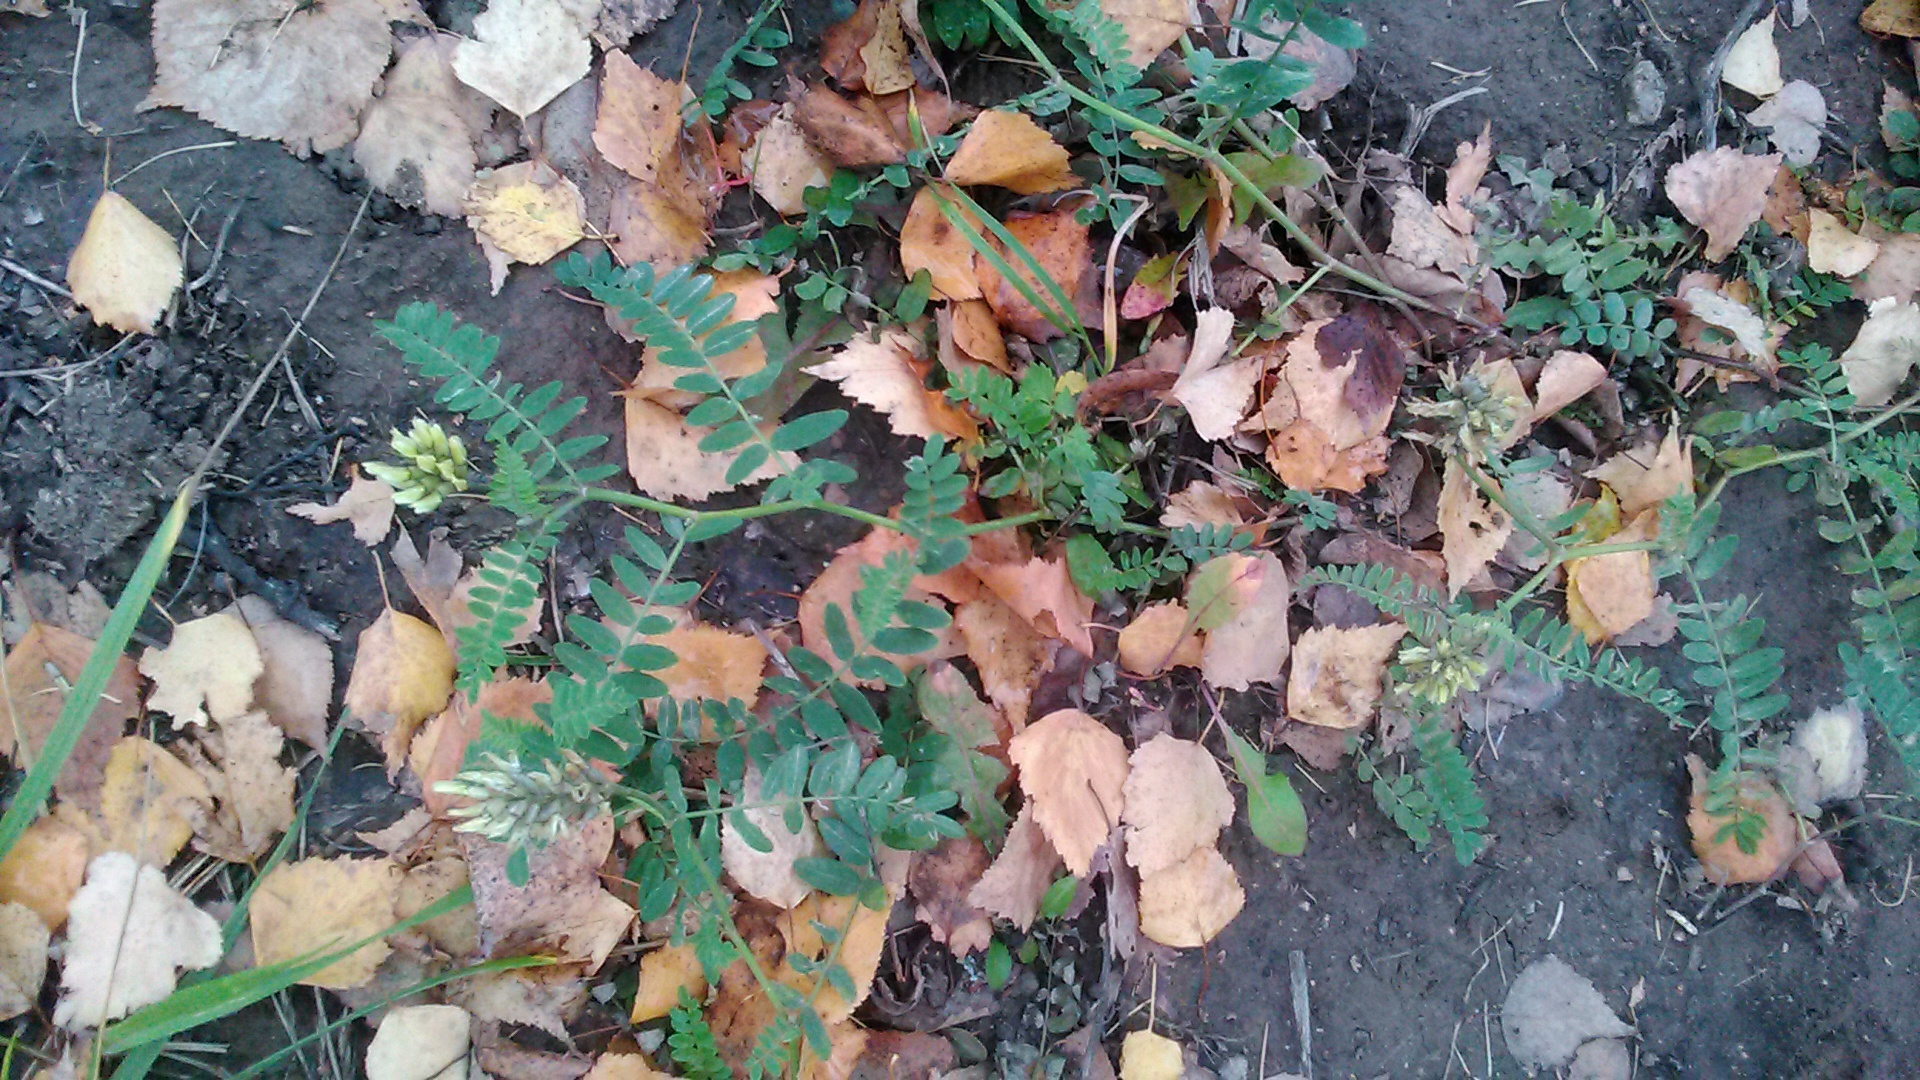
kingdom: Plantae
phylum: Tracheophyta
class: Magnoliopsida
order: Fabales
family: Fabaceae
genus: Astragalus
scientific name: Astragalus cicer
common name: Chick-pea milk-vetch
